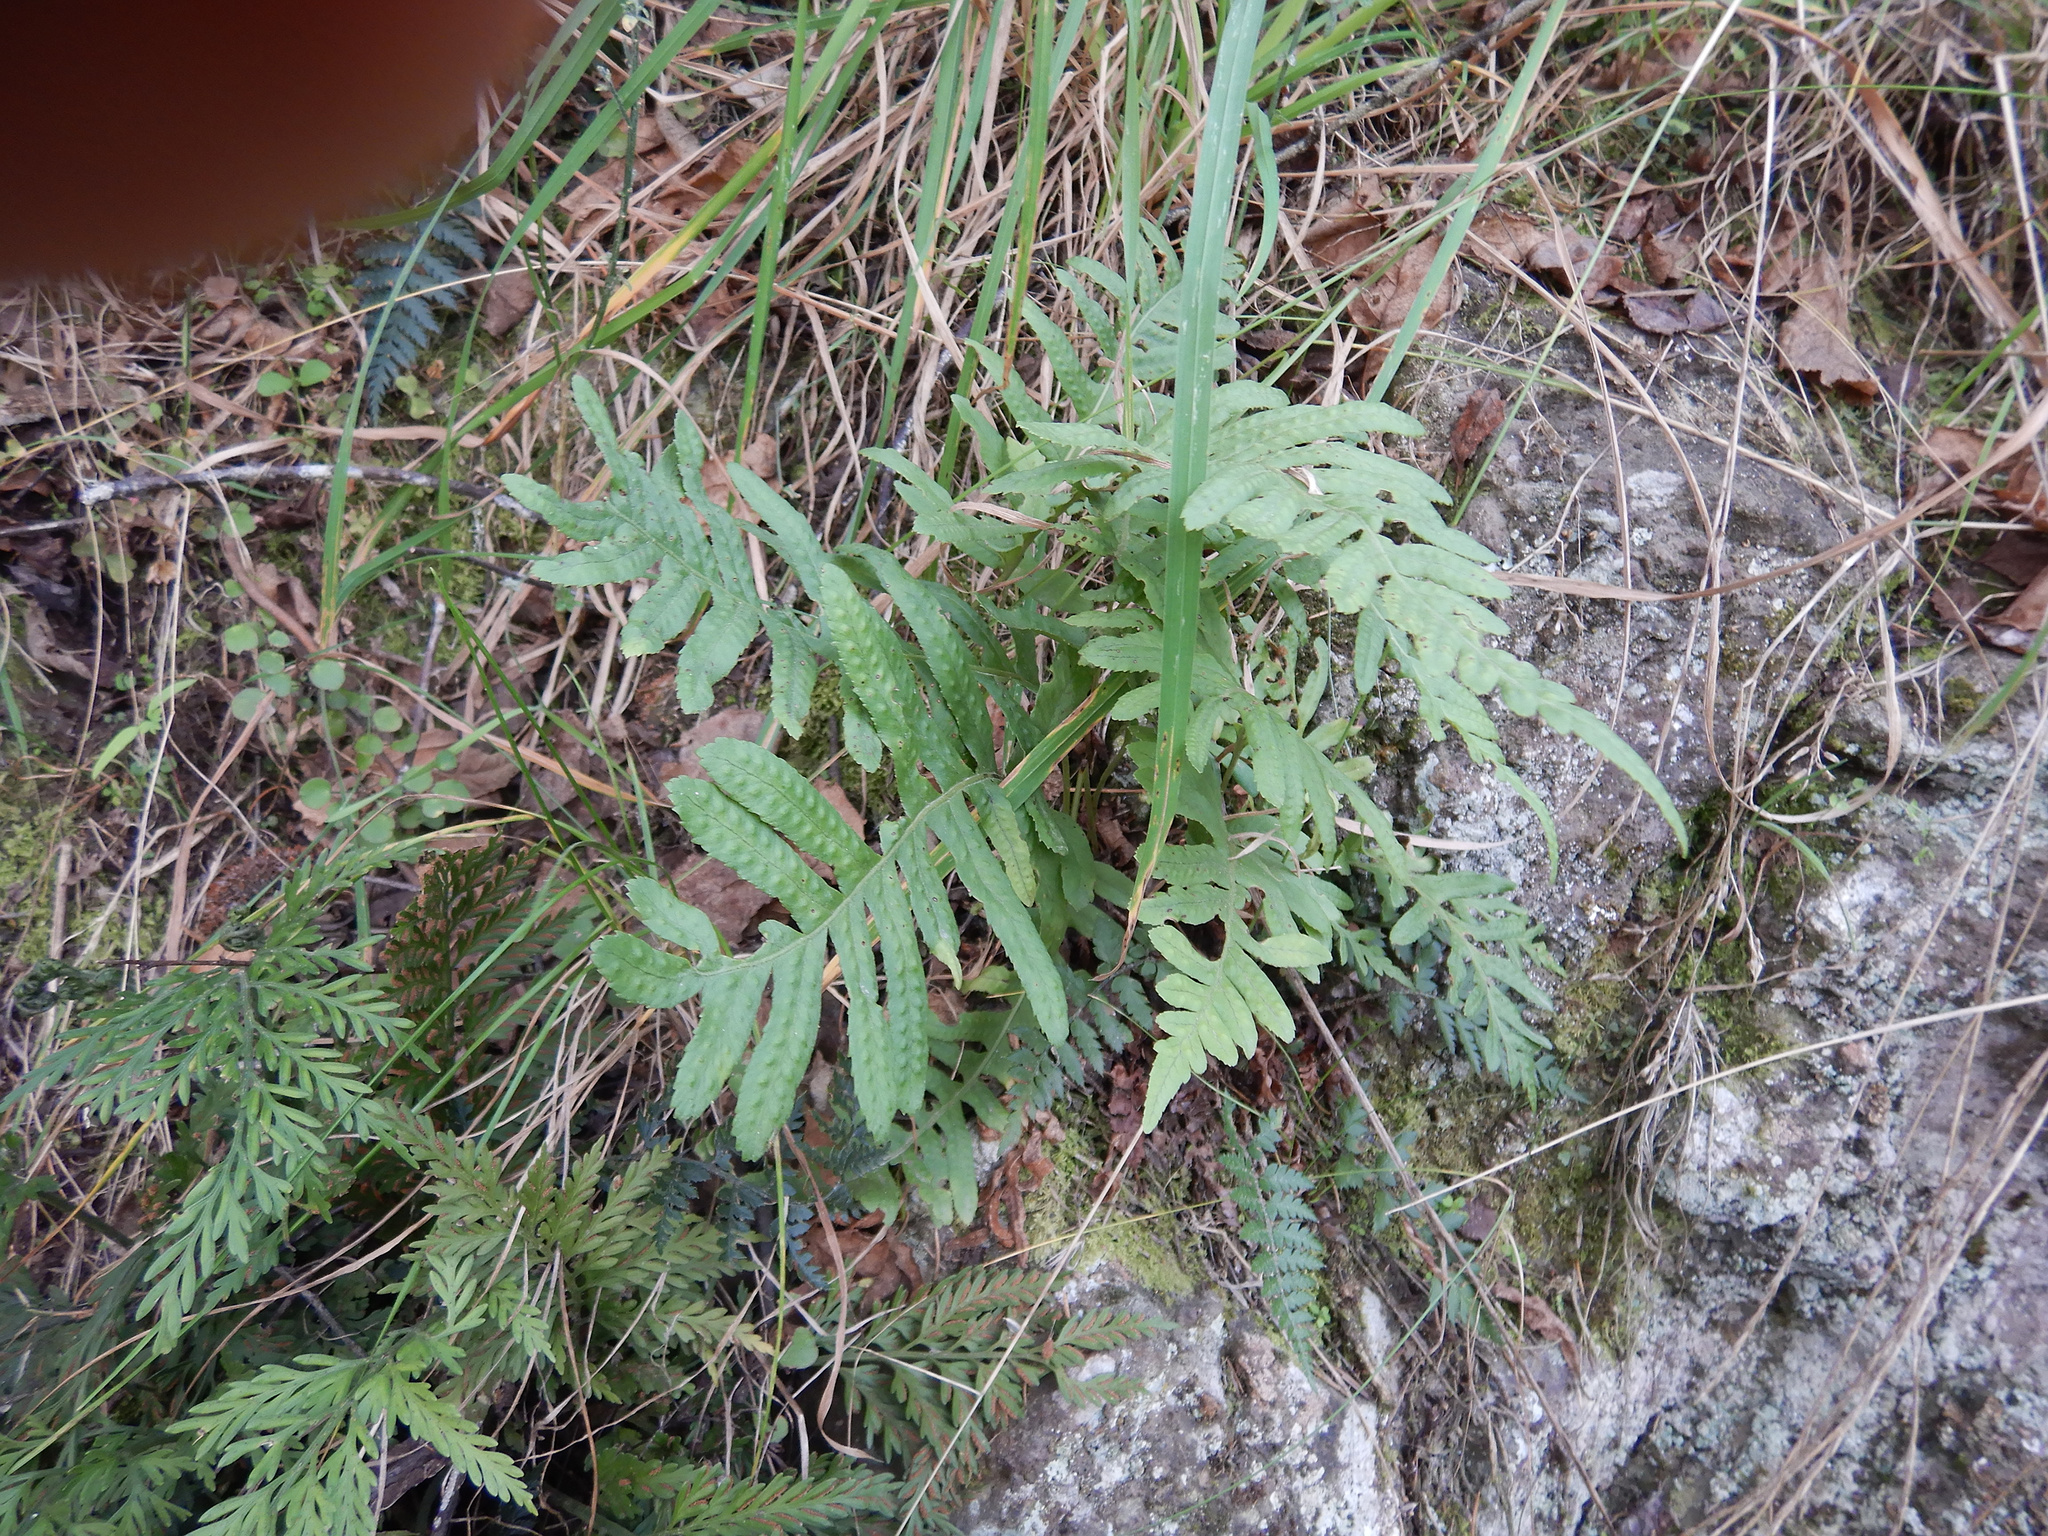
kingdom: Plantae
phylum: Tracheophyta
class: Polypodiopsida
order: Polypodiales
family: Polypodiaceae
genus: Polypodium
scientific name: Polypodium vulgare
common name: Common polypody
